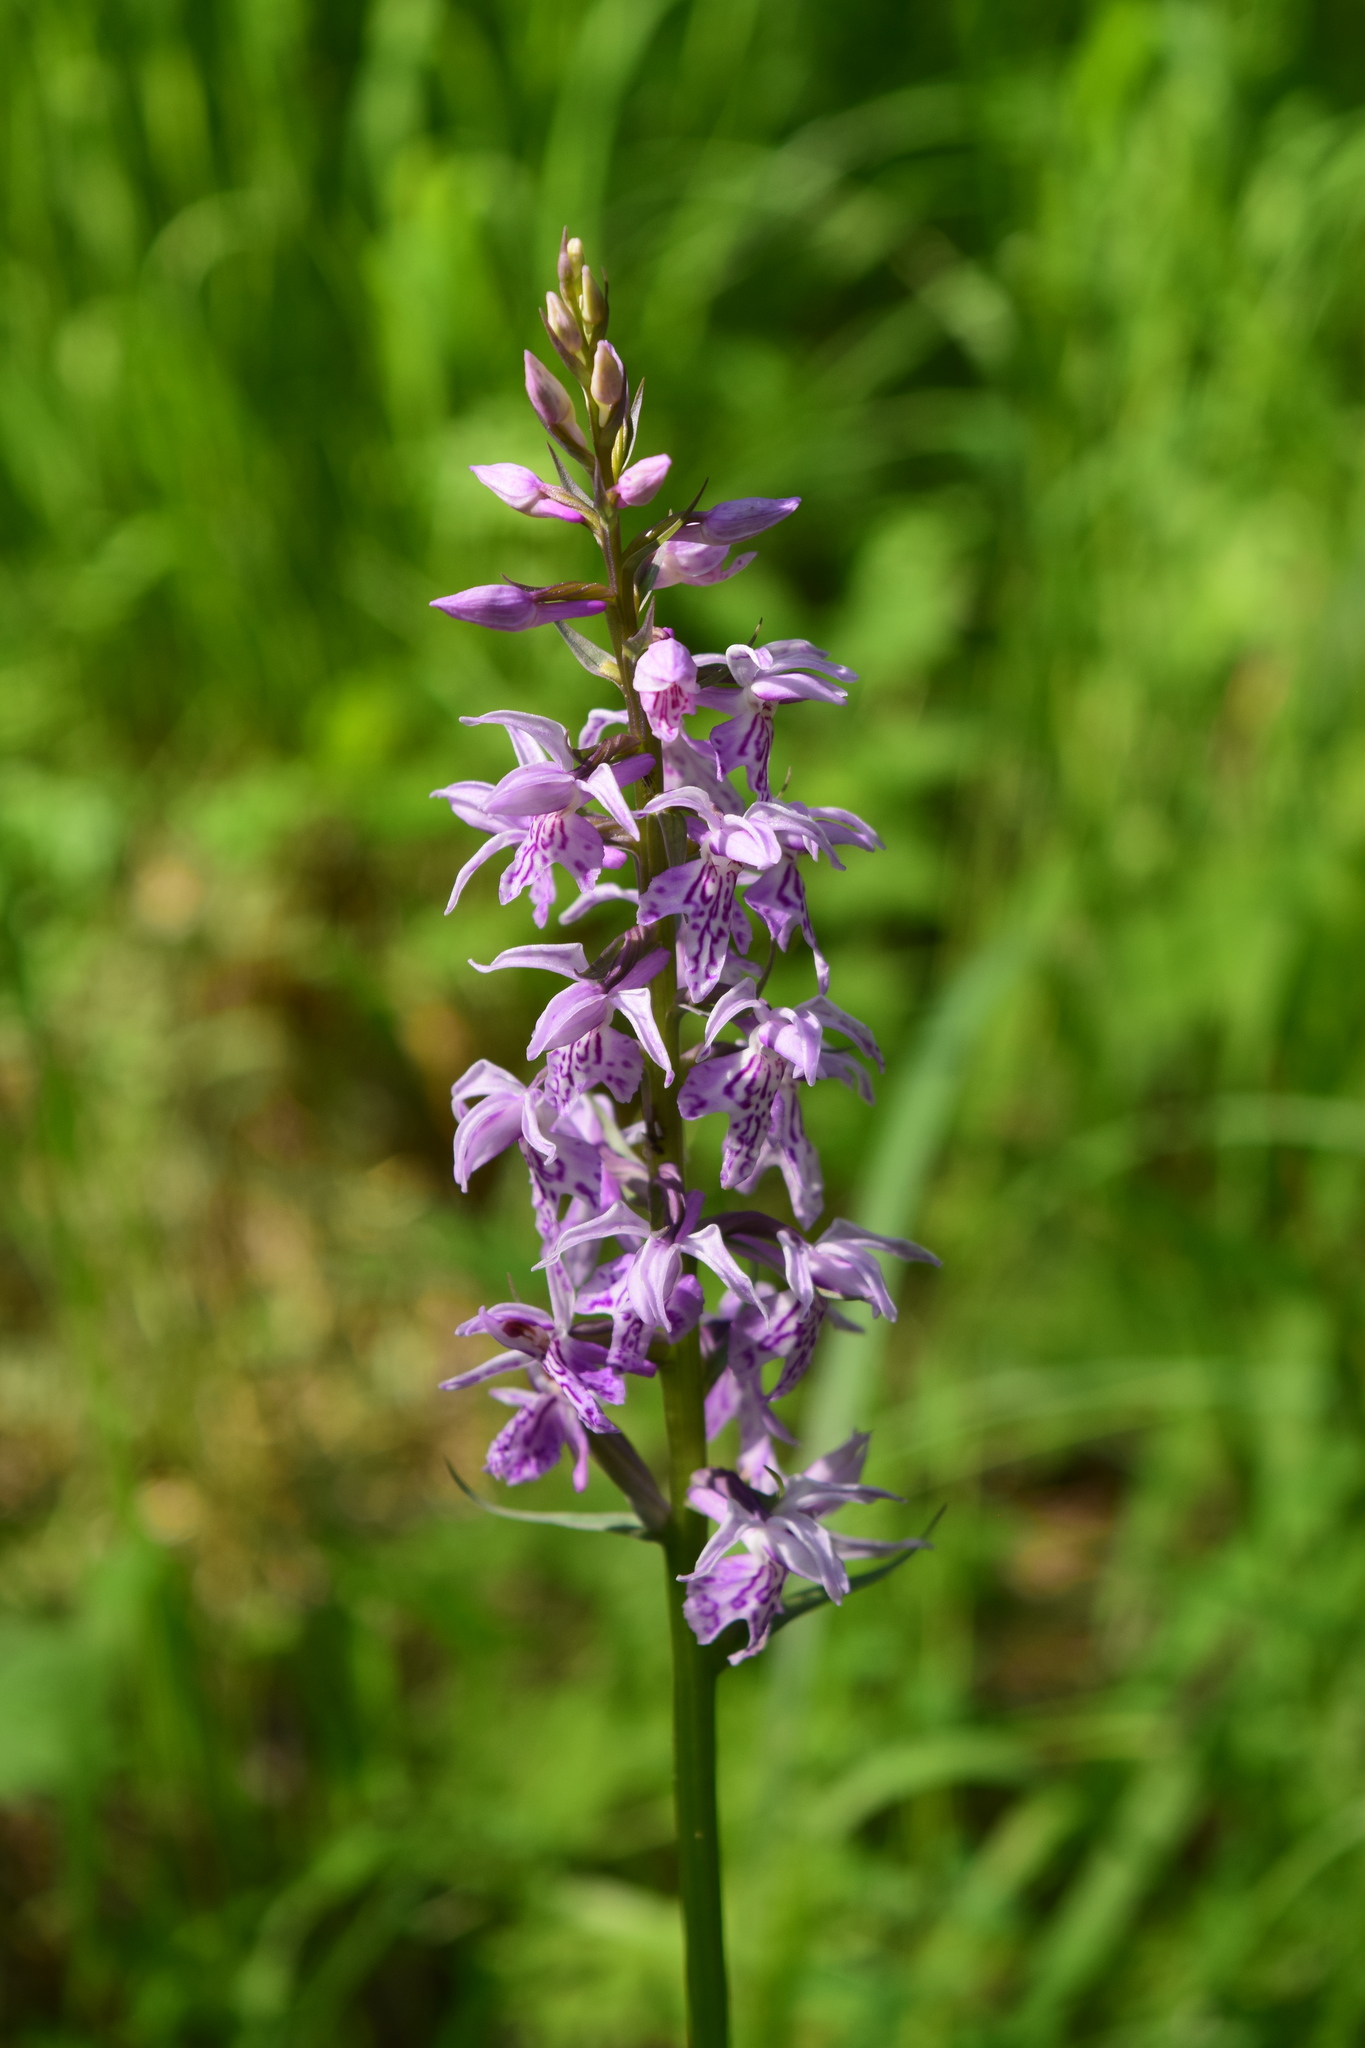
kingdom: Plantae
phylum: Tracheophyta
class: Liliopsida
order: Asparagales
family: Orchidaceae
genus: Dactylorhiza
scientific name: Dactylorhiza maculata
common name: Heath spotted-orchid
